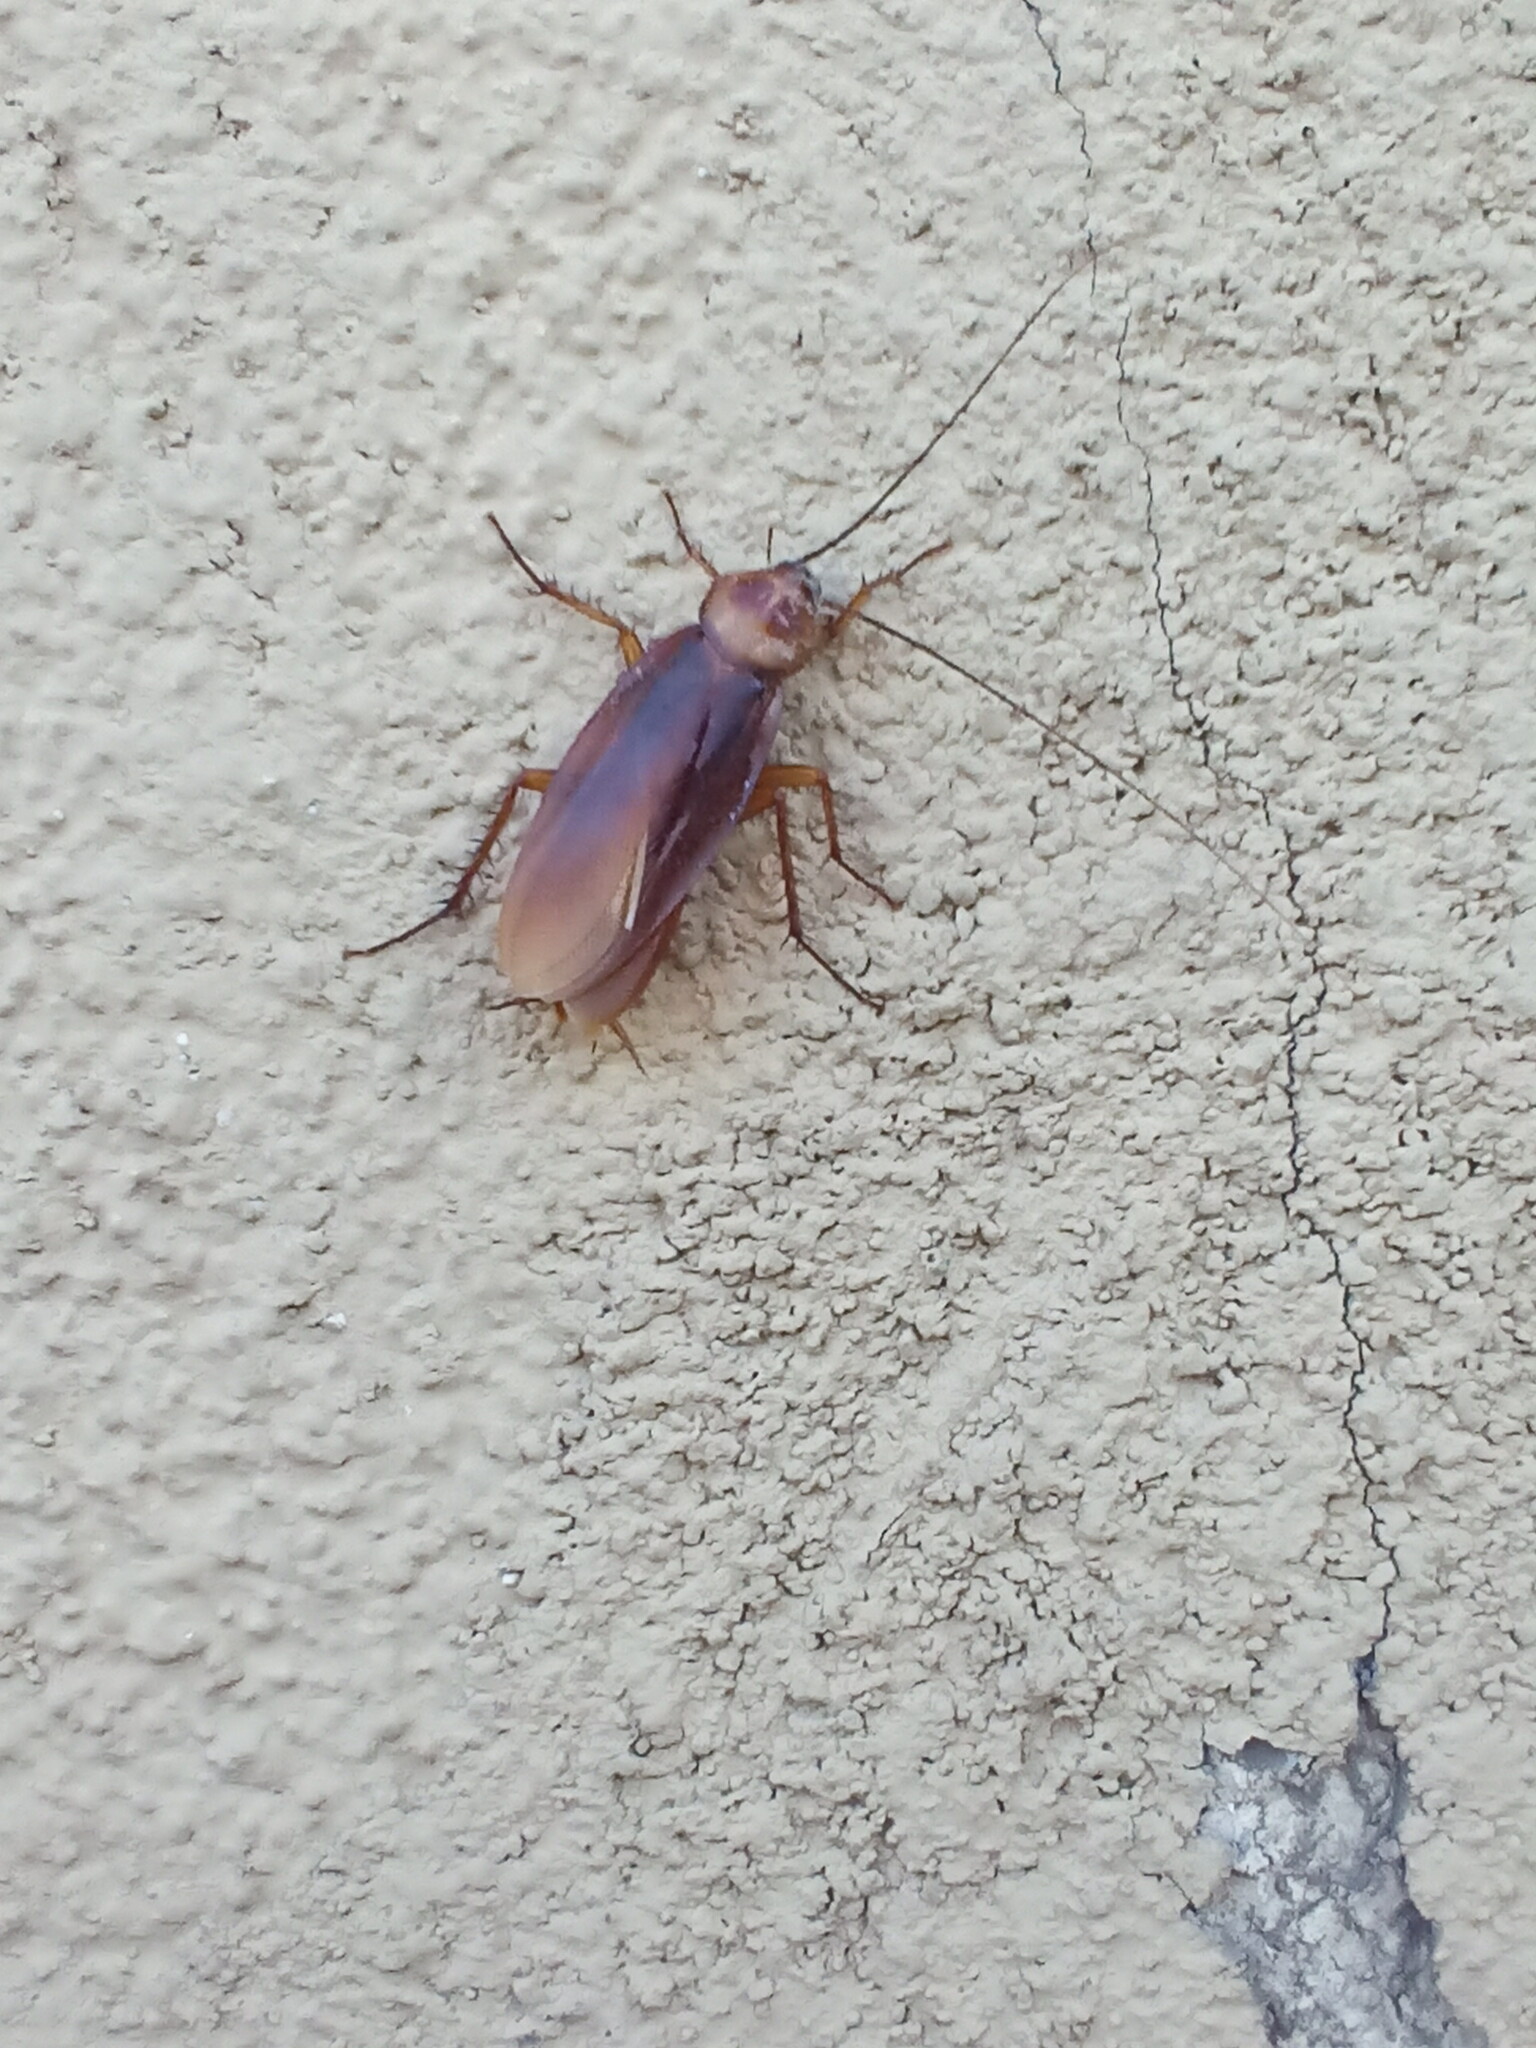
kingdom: Animalia
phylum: Arthropoda
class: Insecta
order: Blattodea
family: Blattidae
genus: Periplaneta
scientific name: Periplaneta americana
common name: American cockroach
